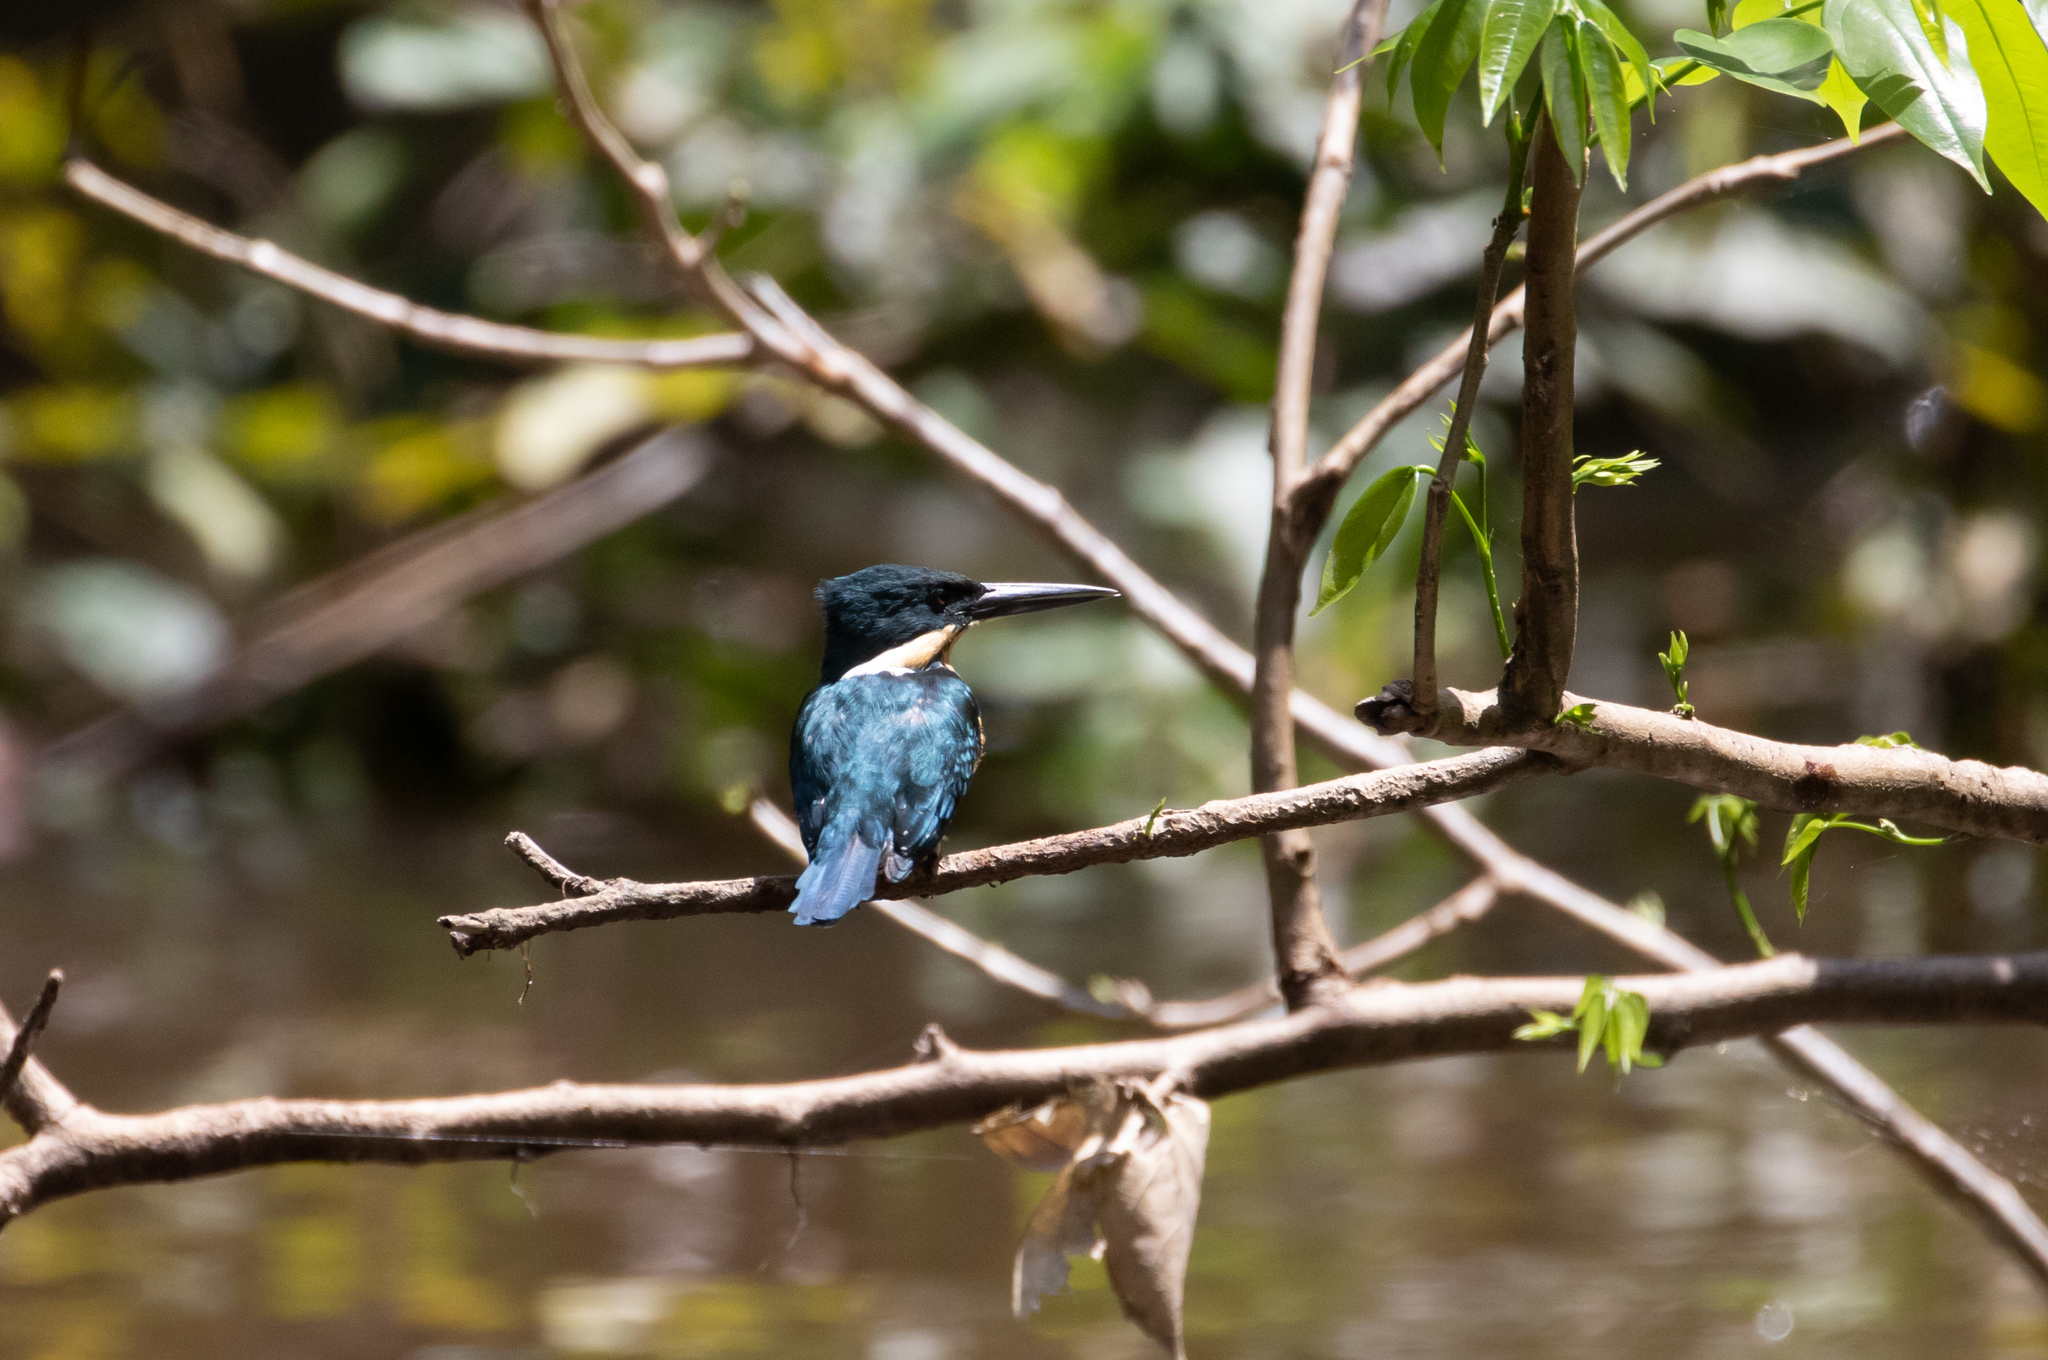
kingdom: Animalia
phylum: Chordata
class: Aves
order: Coraciiformes
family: Alcedinidae
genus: Chloroceryle
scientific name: Chloroceryle americana
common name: Green kingfisher
